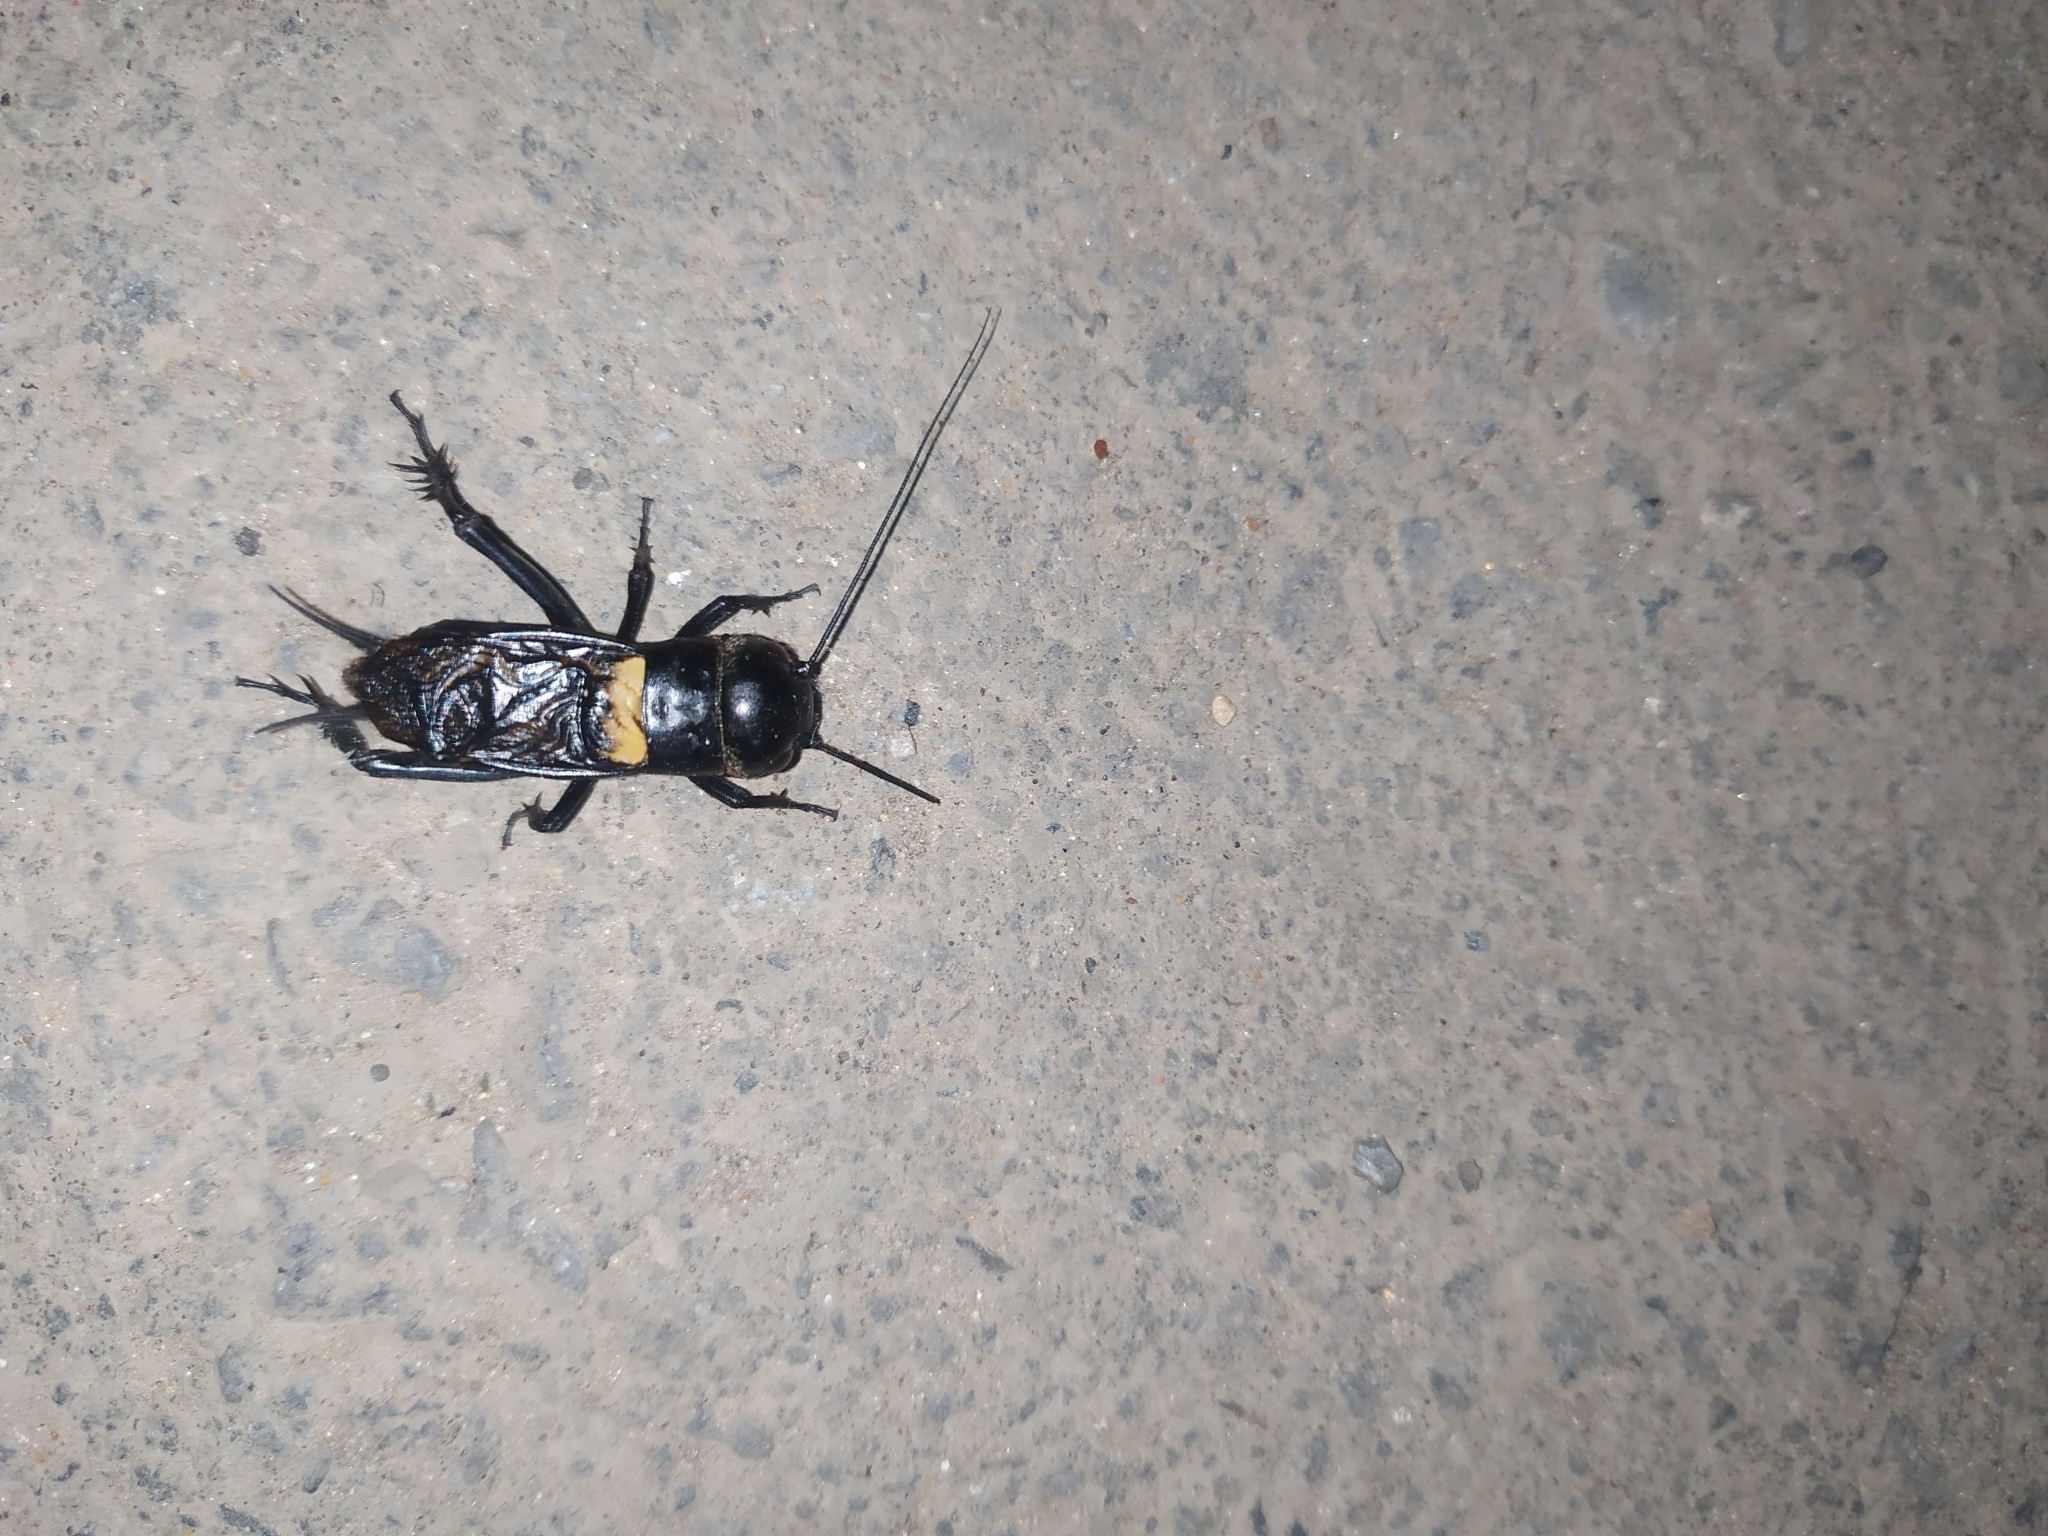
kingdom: Animalia
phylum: Arthropoda
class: Insecta
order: Orthoptera
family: Gryllidae
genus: Gryllus
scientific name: Gryllus campestris
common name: Field cricket
